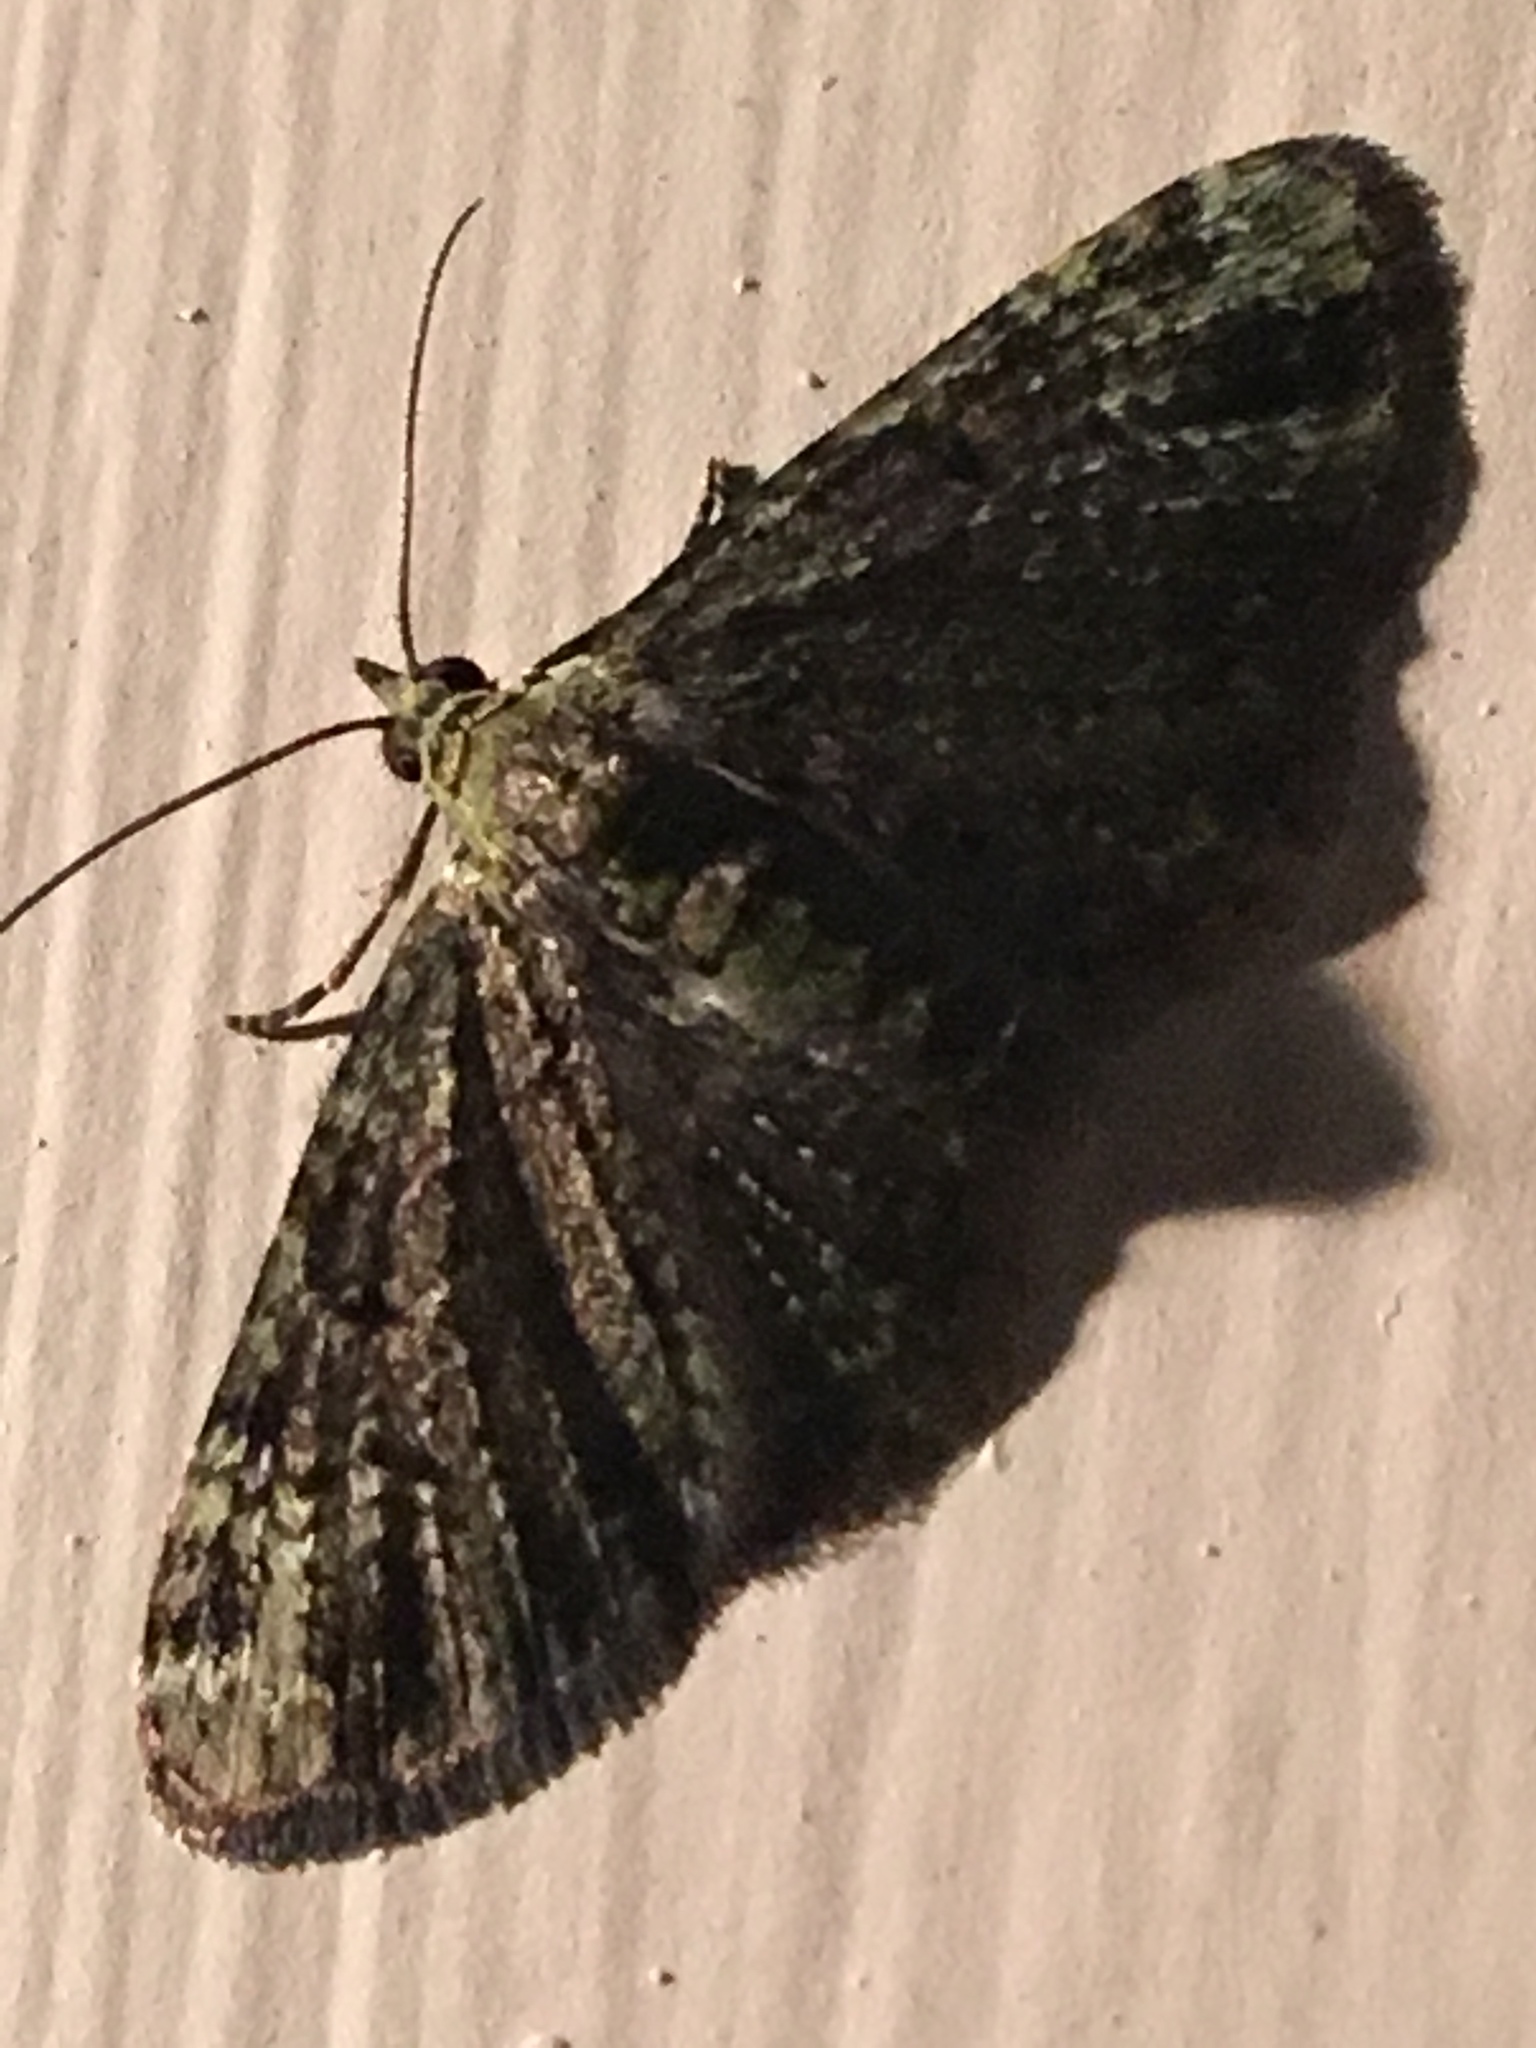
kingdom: Animalia
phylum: Arthropoda
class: Insecta
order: Lepidoptera
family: Geometridae
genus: Pasiphila
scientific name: Pasiphila rectangulata
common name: Green pug
